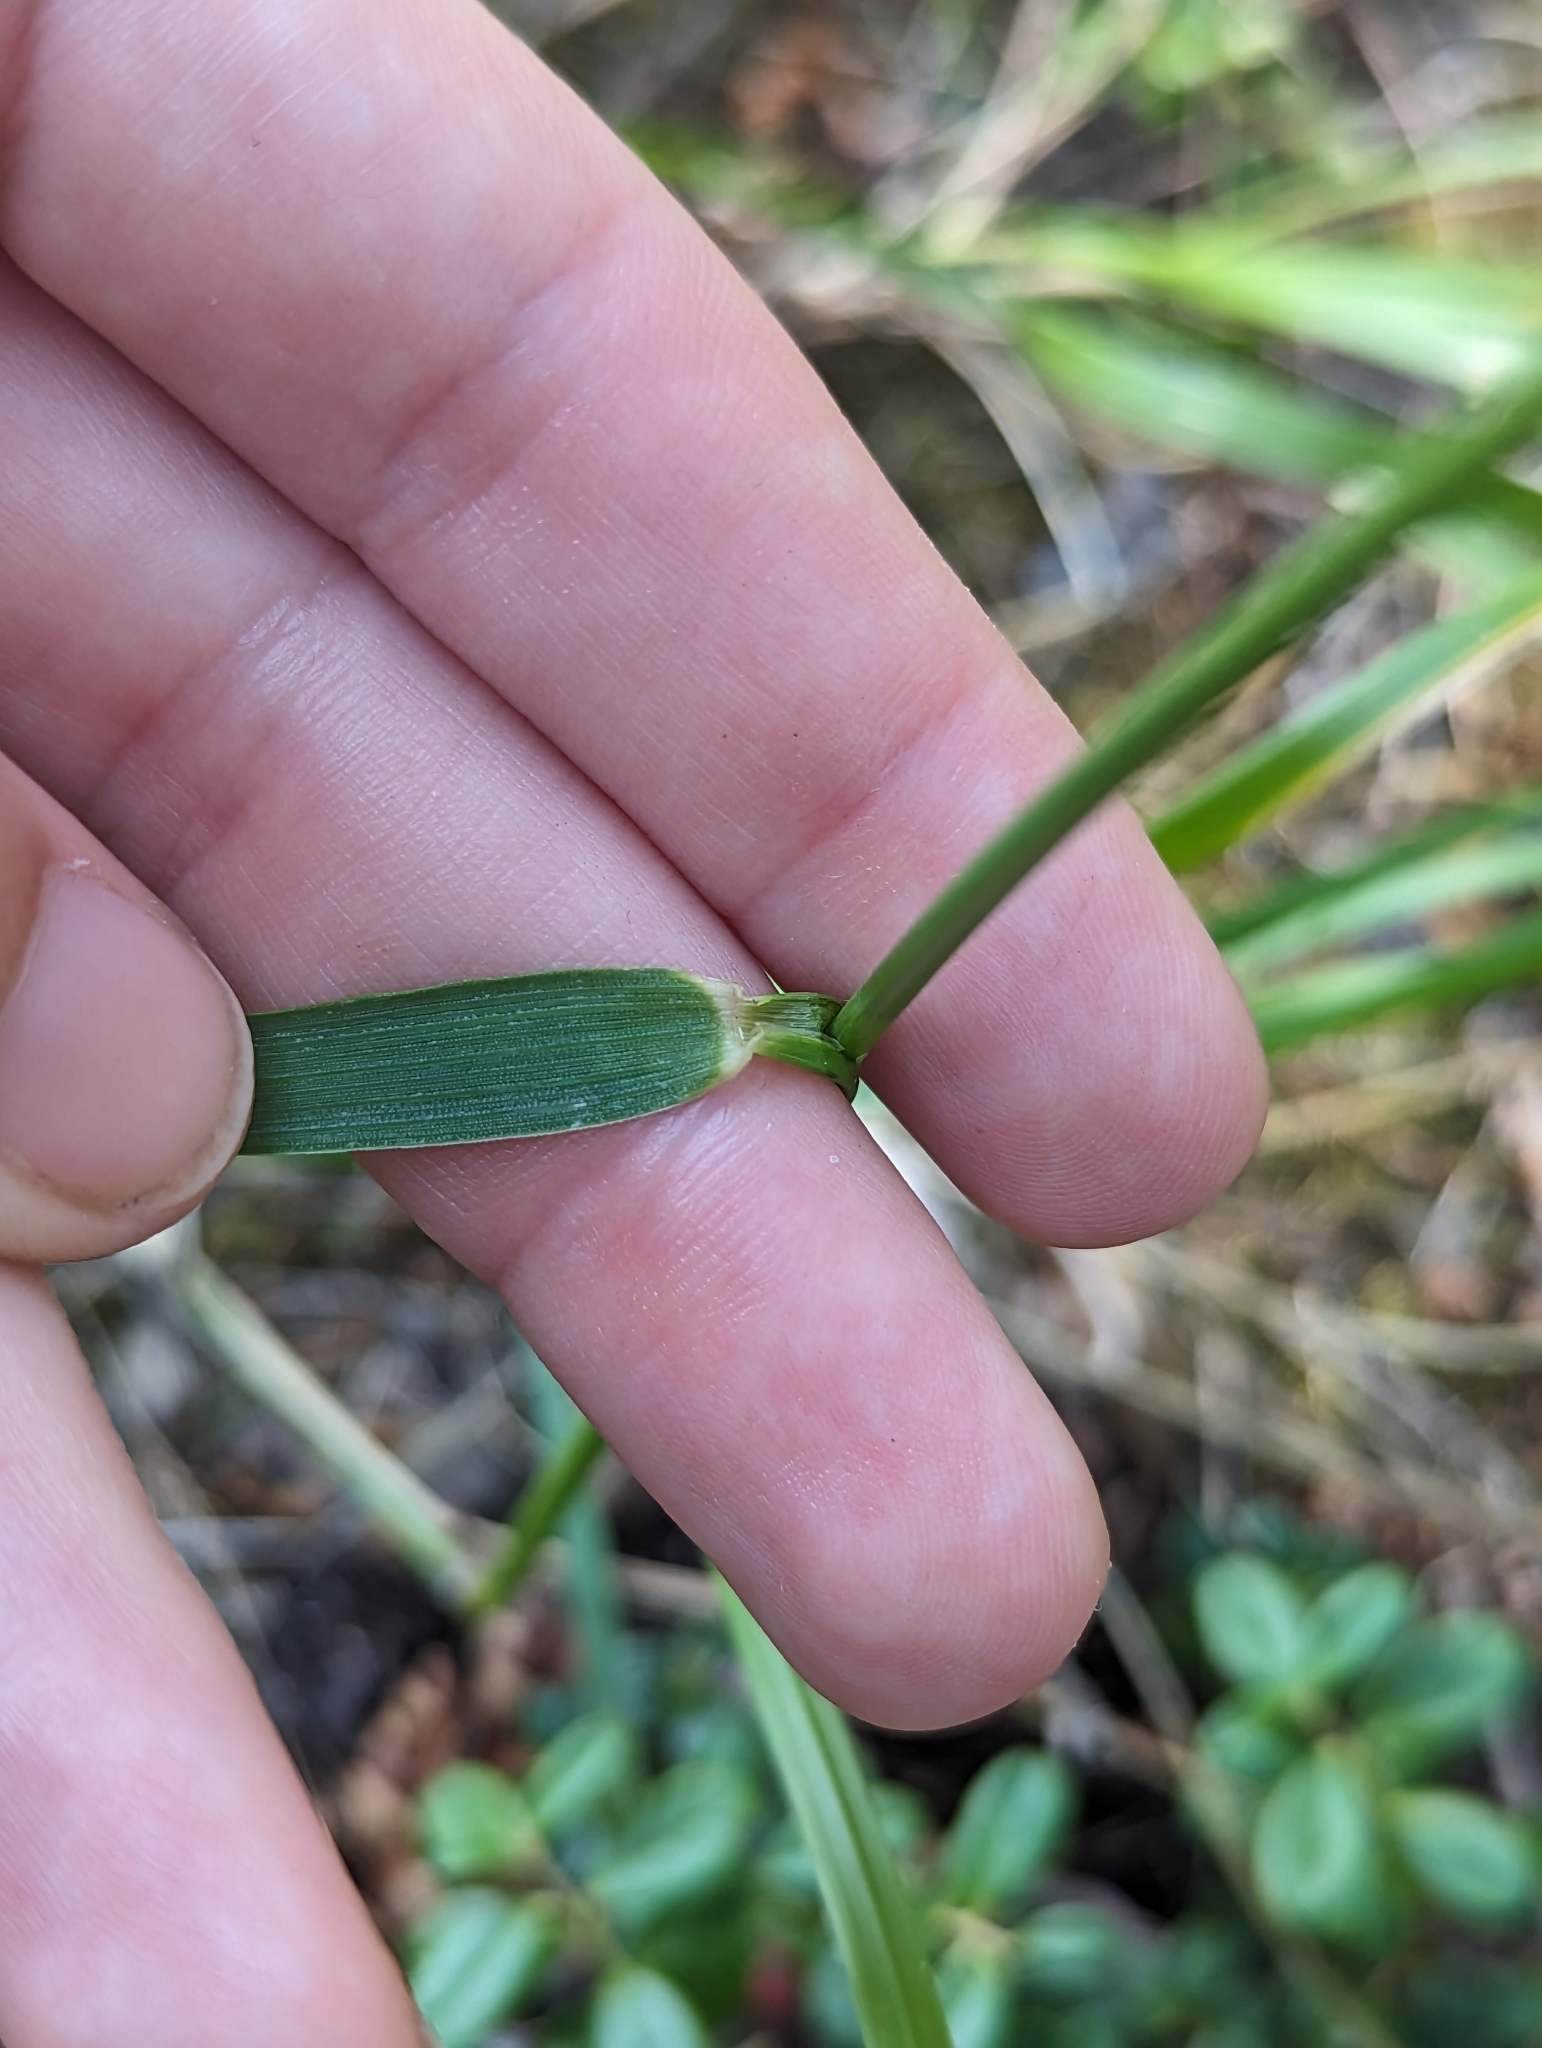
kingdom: Plantae
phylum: Tracheophyta
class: Liliopsida
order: Poales
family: Poaceae
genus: Leymus
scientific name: Leymus innovatus
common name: Boreal wild rye
